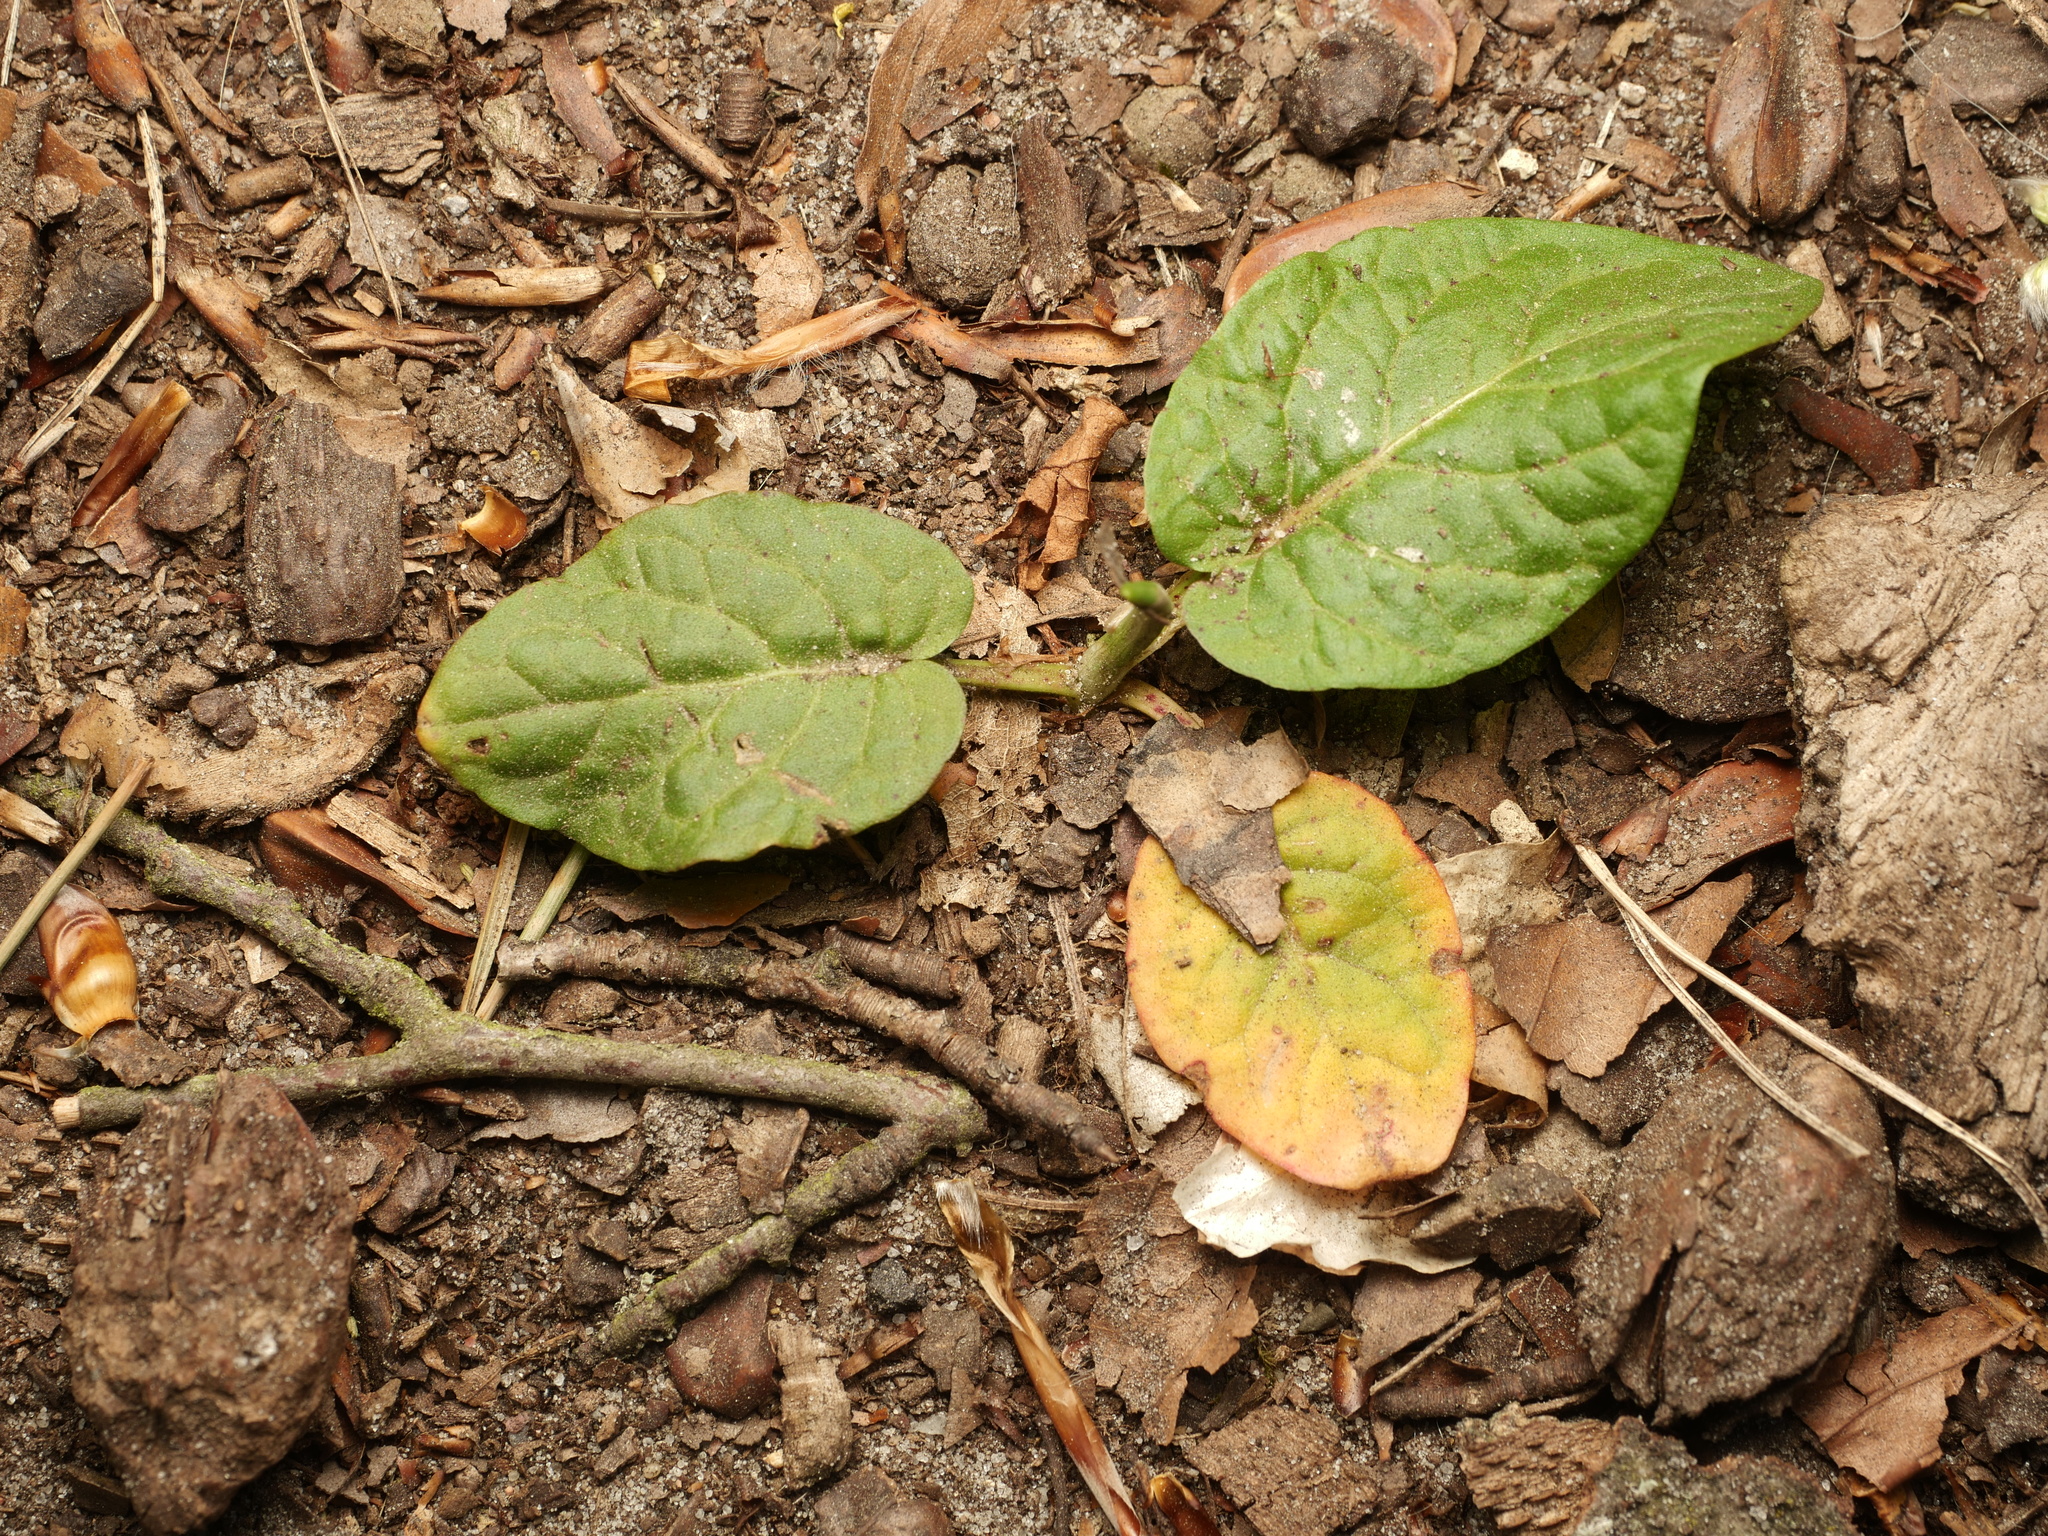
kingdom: Plantae
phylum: Tracheophyta
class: Magnoliopsida
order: Caryophyllales
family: Polygonaceae
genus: Rumex
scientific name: Rumex obtusifolius
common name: Bitter dock
